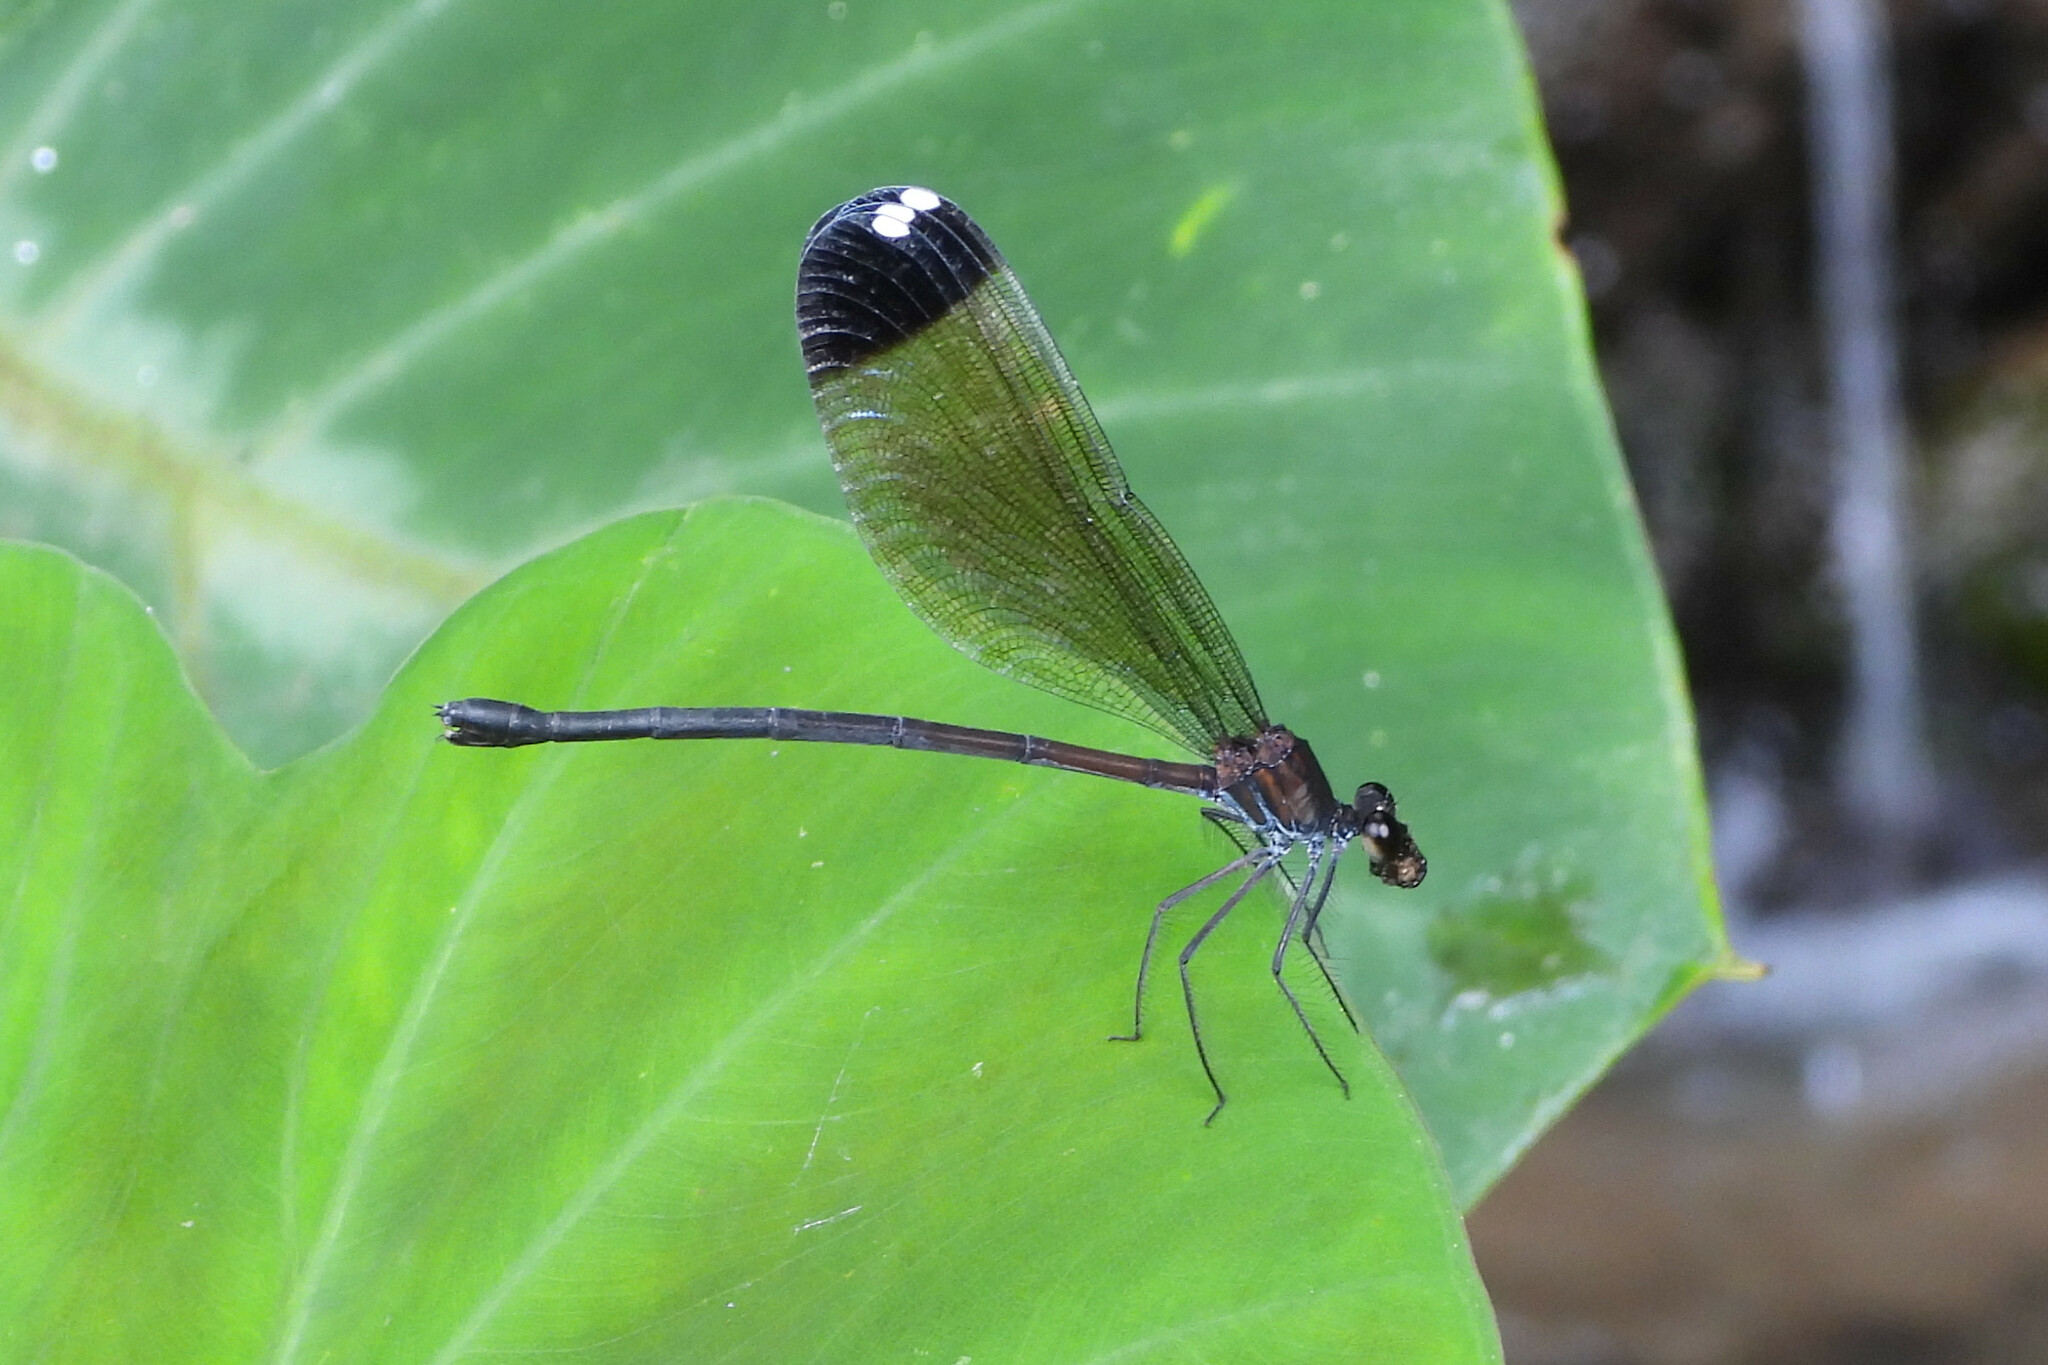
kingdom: Animalia
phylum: Arthropoda
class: Insecta
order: Odonata
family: Calopterygidae
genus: Echo
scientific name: Echo margarita
